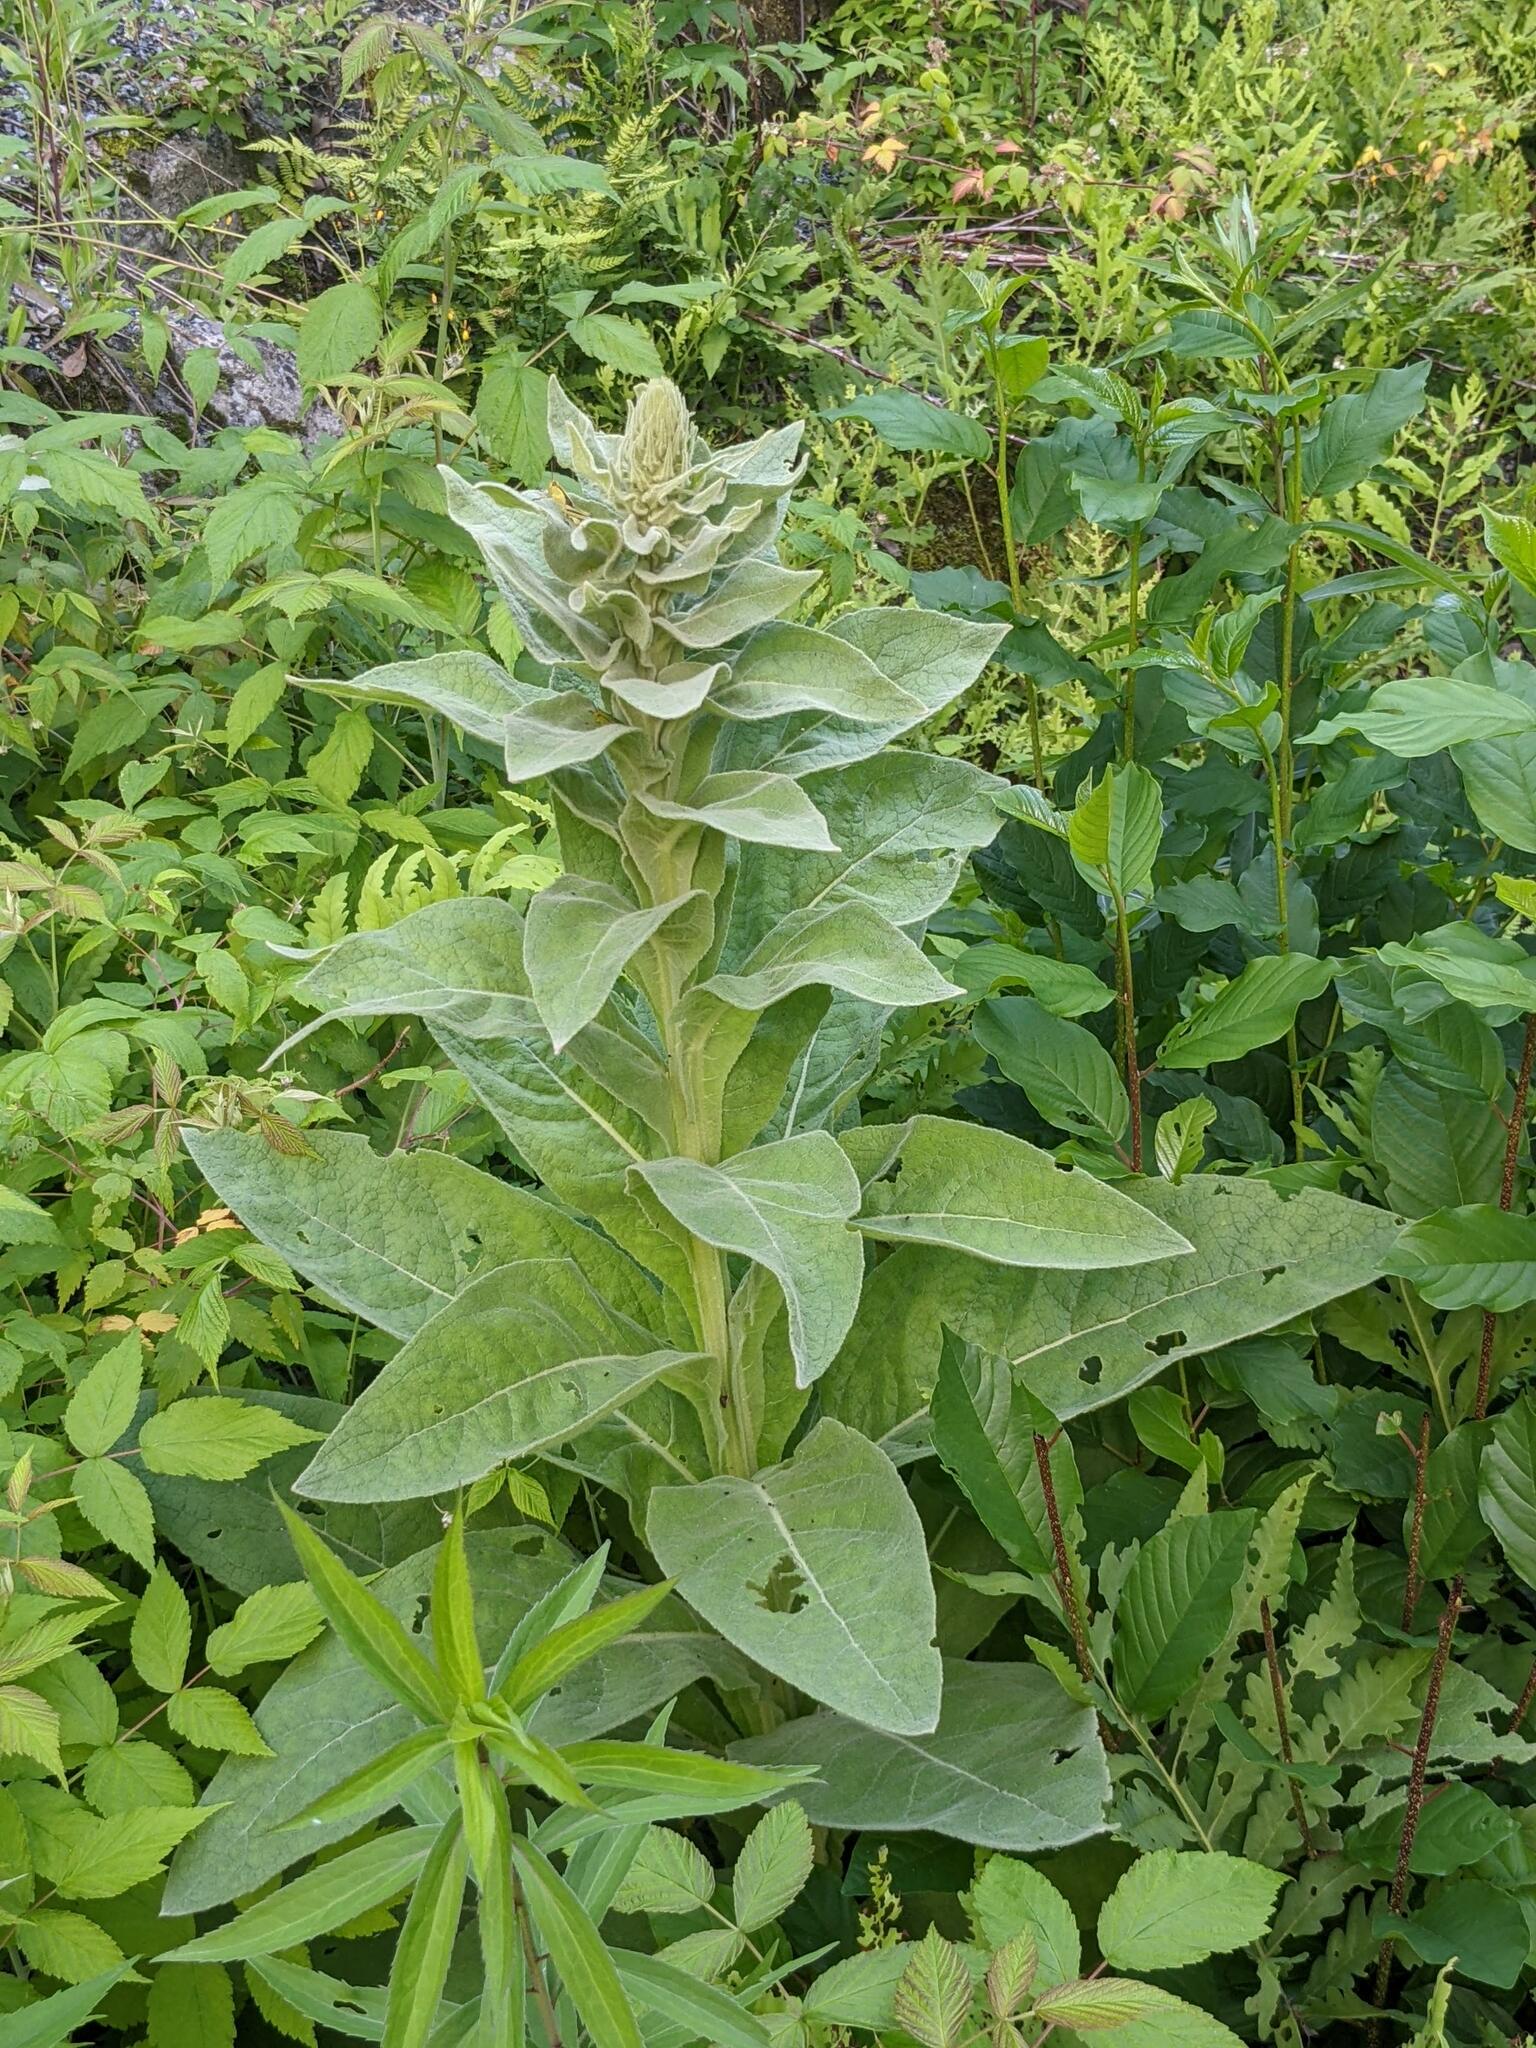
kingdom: Plantae
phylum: Tracheophyta
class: Magnoliopsida
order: Lamiales
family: Scrophulariaceae
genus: Verbascum
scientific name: Verbascum thapsus
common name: Common mullein
